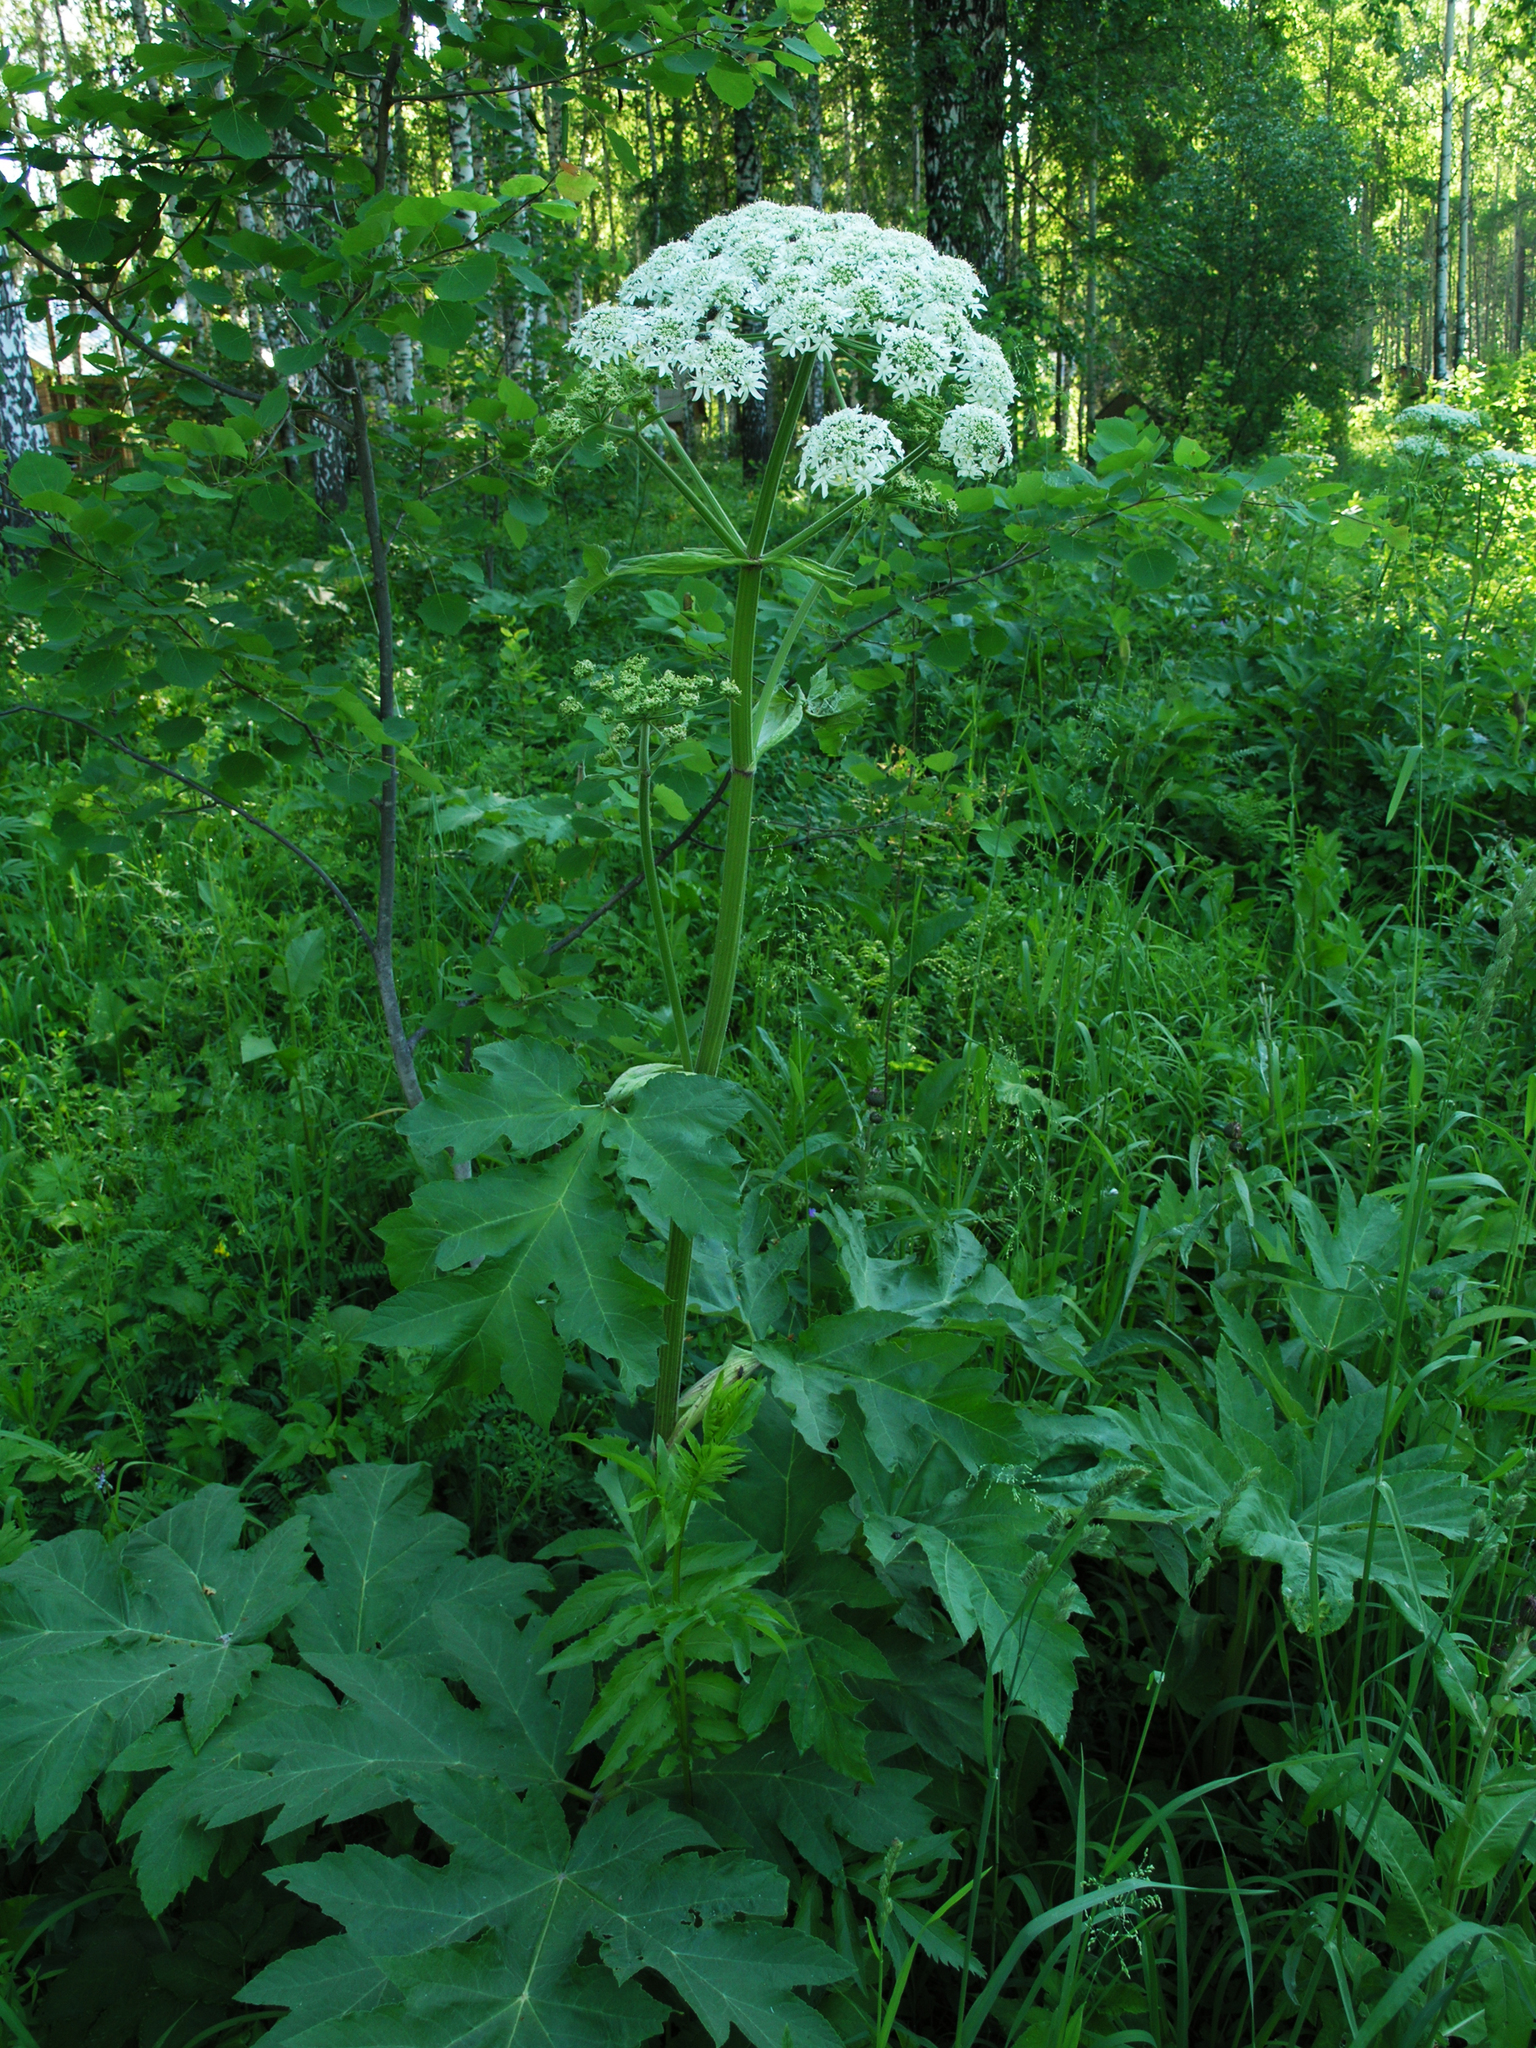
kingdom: Plantae
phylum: Tracheophyta
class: Magnoliopsida
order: Apiales
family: Apiaceae
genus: Heracleum
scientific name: Heracleum dissectum
